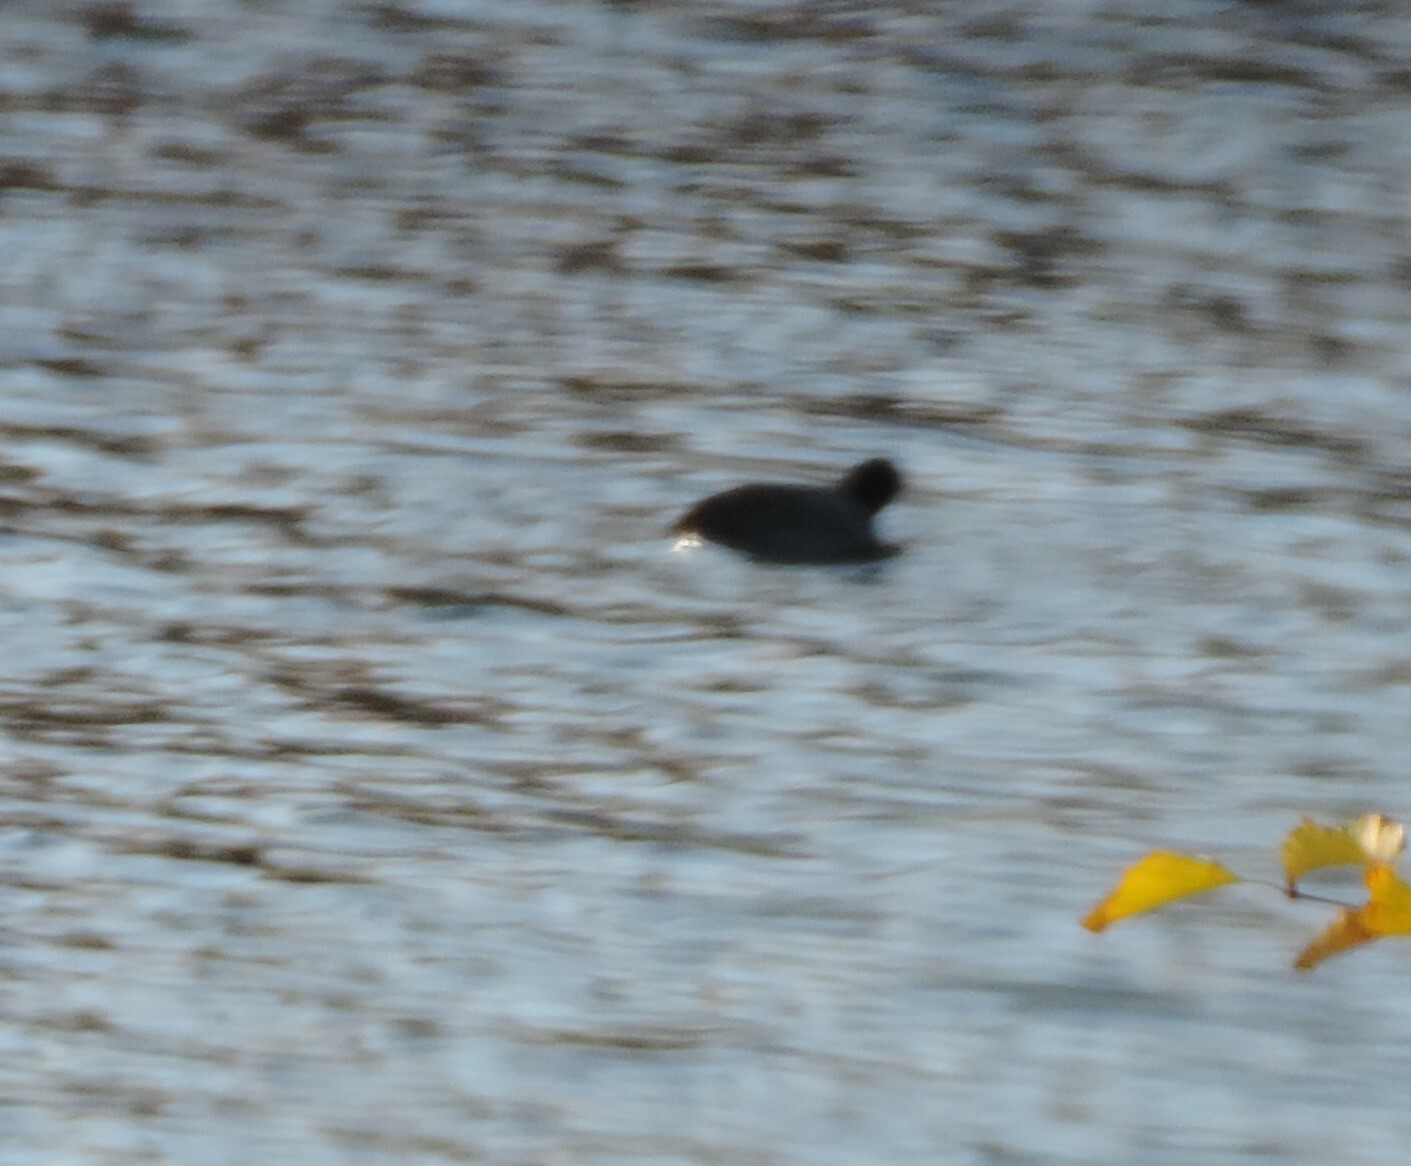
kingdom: Animalia
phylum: Chordata
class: Aves
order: Gruiformes
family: Rallidae
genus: Fulica
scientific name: Fulica americana
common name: American coot
